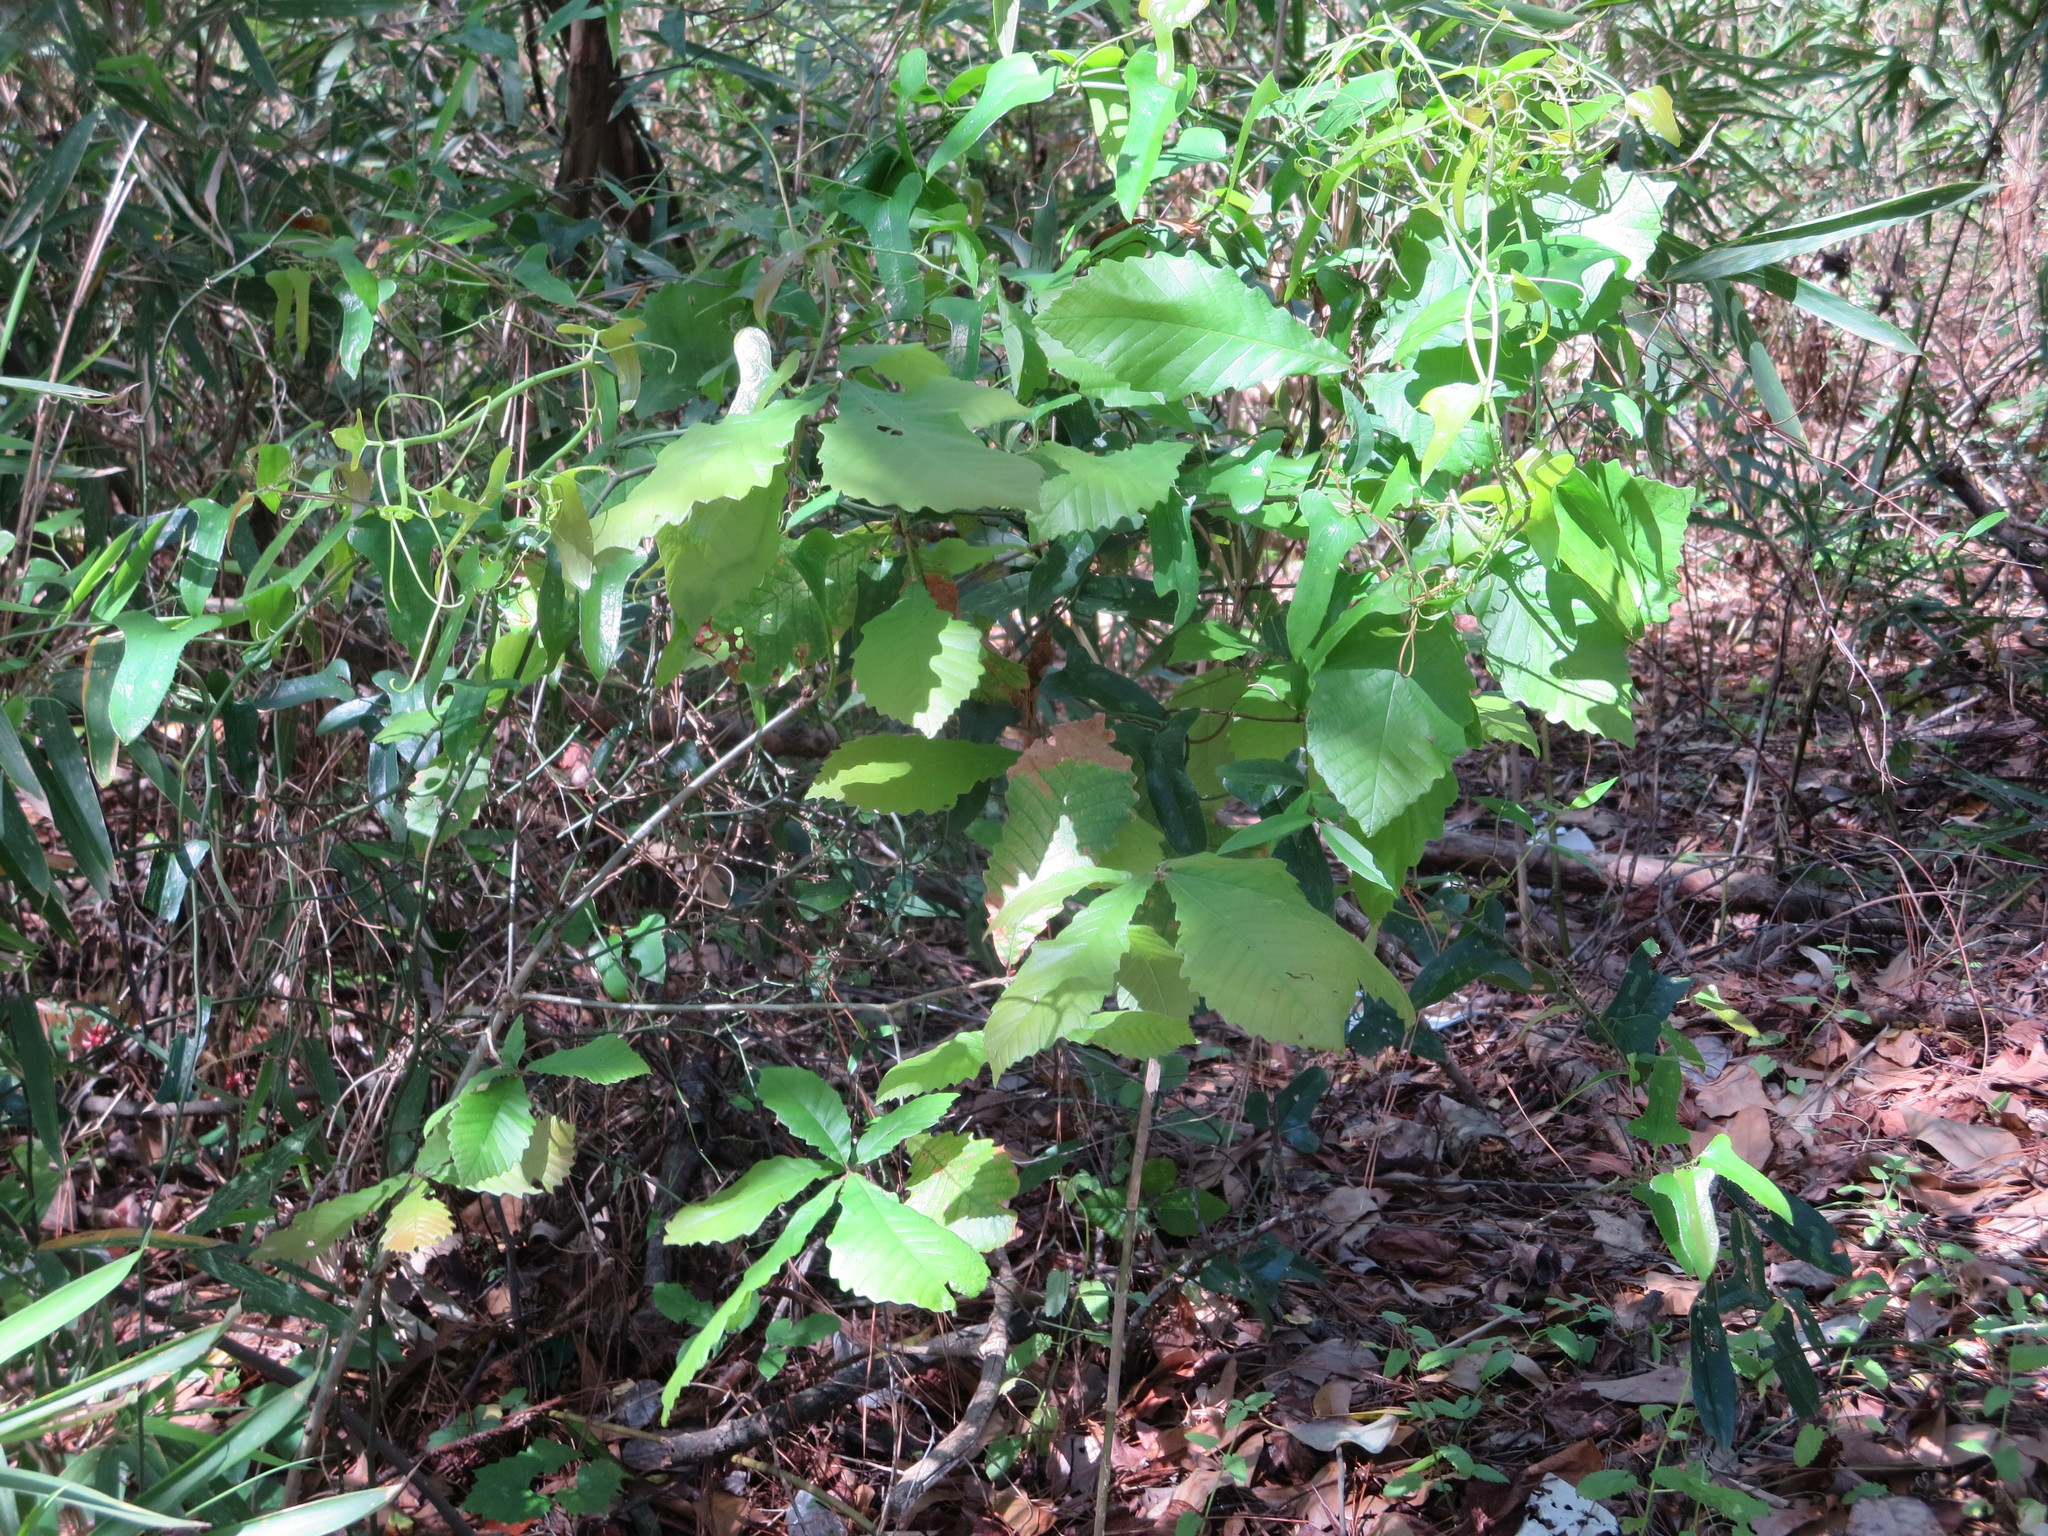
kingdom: Plantae
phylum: Tracheophyta
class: Magnoliopsida
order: Fagales
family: Fagaceae
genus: Quercus
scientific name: Quercus michauxii
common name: Swamp chestnut oak
